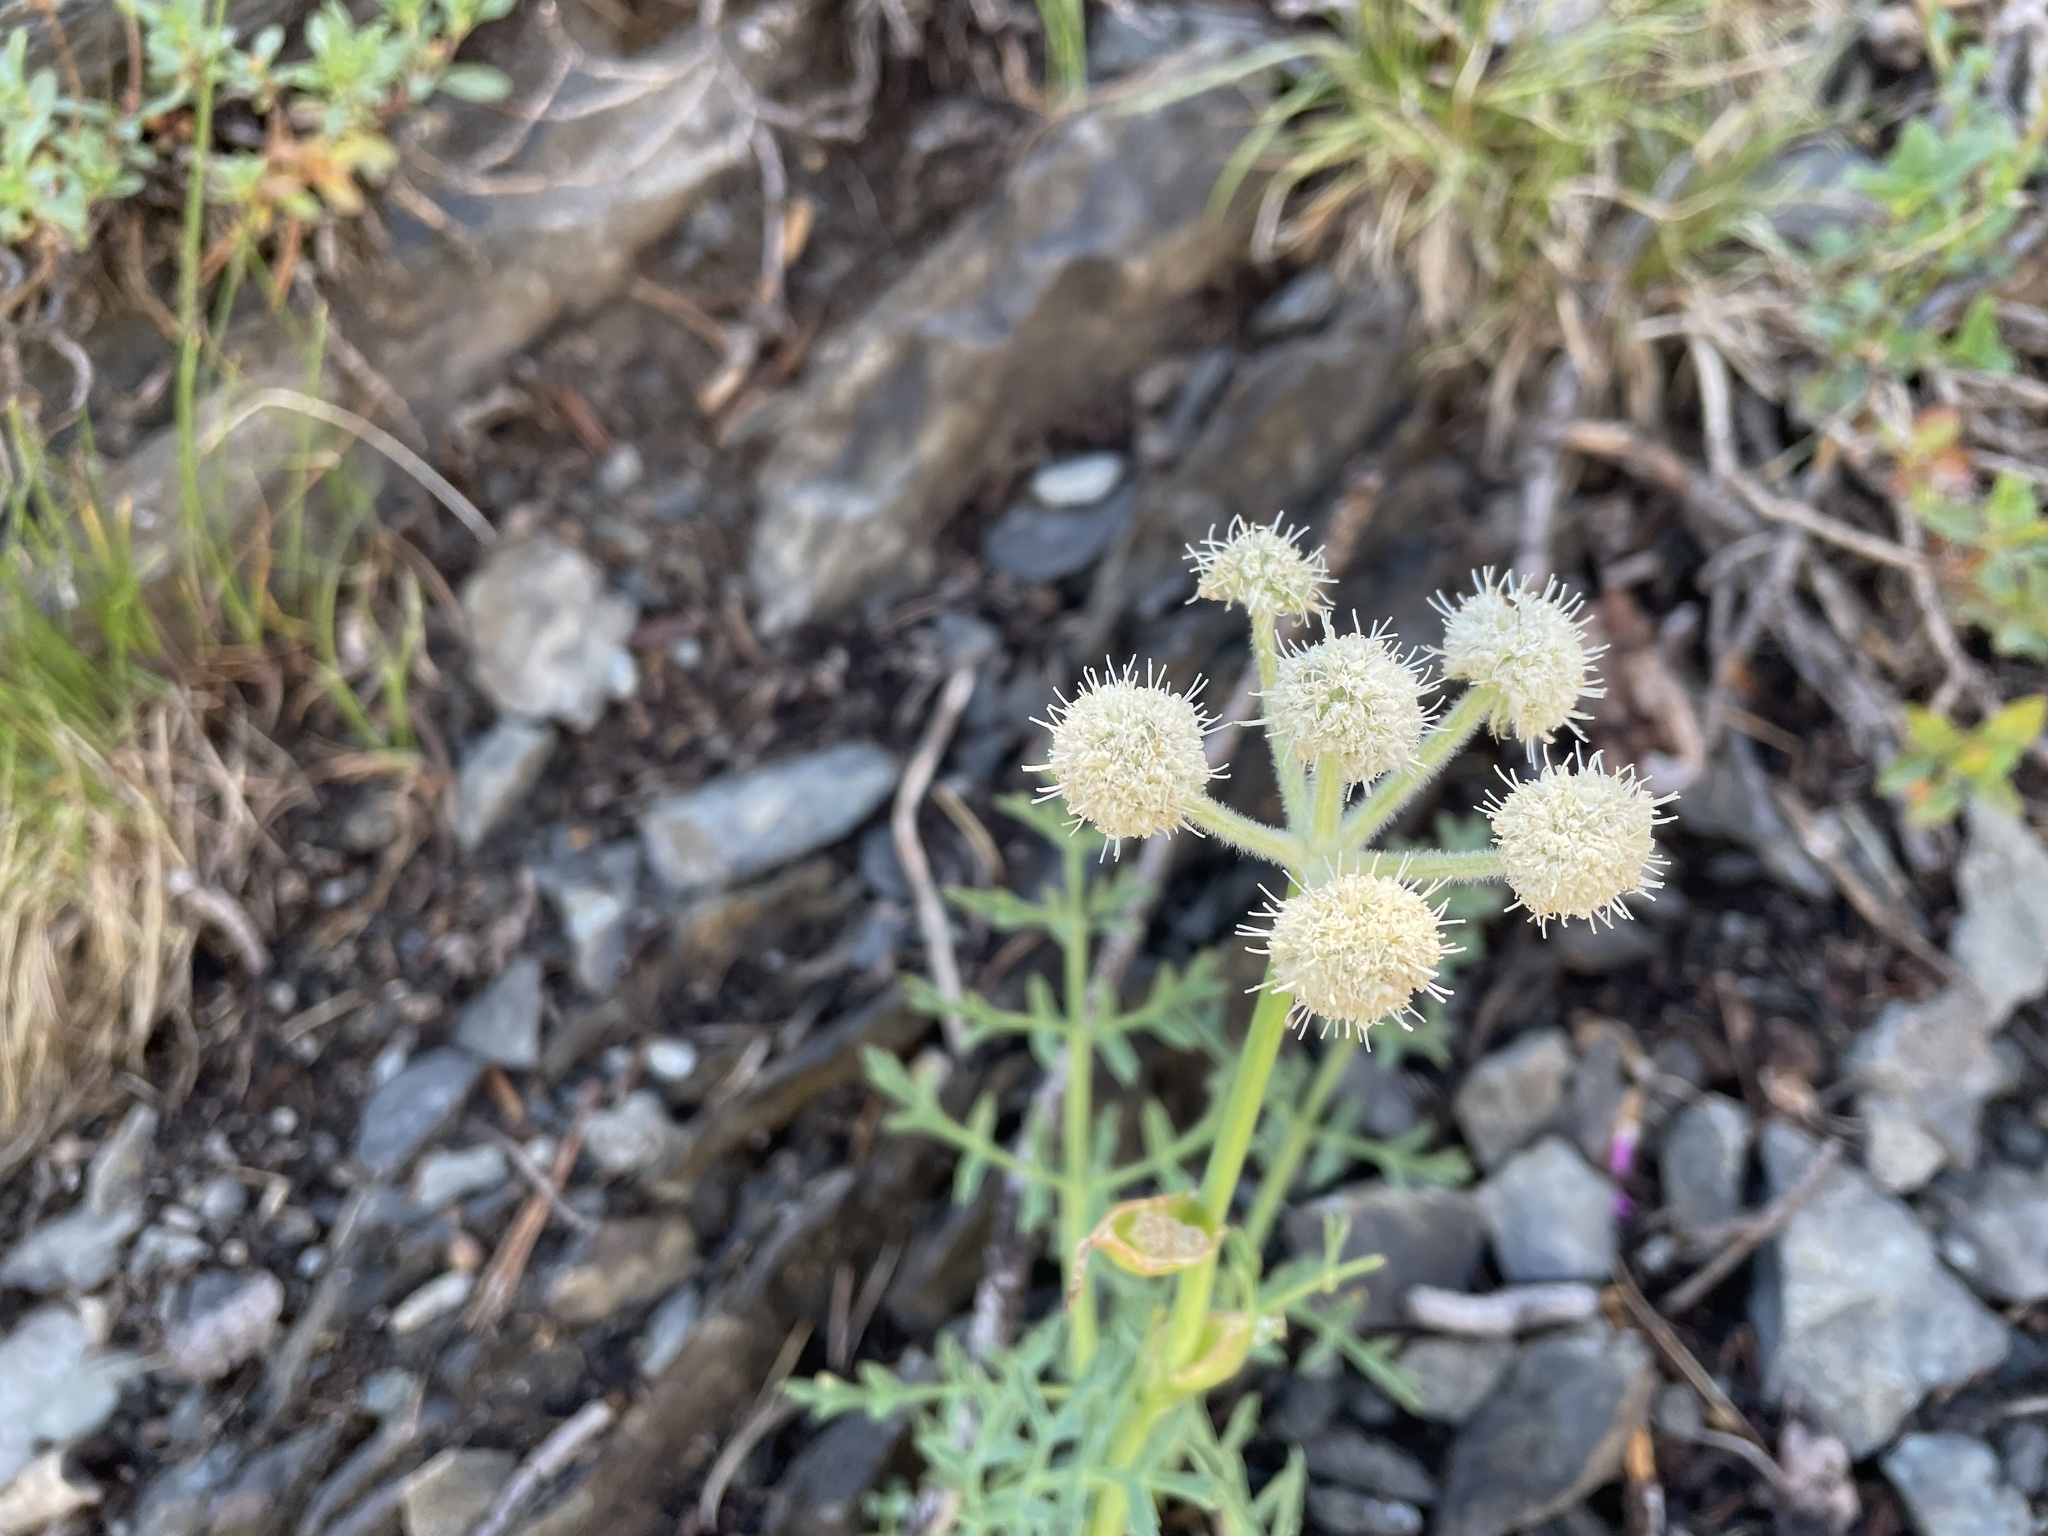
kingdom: Plantae
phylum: Tracheophyta
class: Magnoliopsida
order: Apiales
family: Apiaceae
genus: Angelica
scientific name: Angelica capitellata
